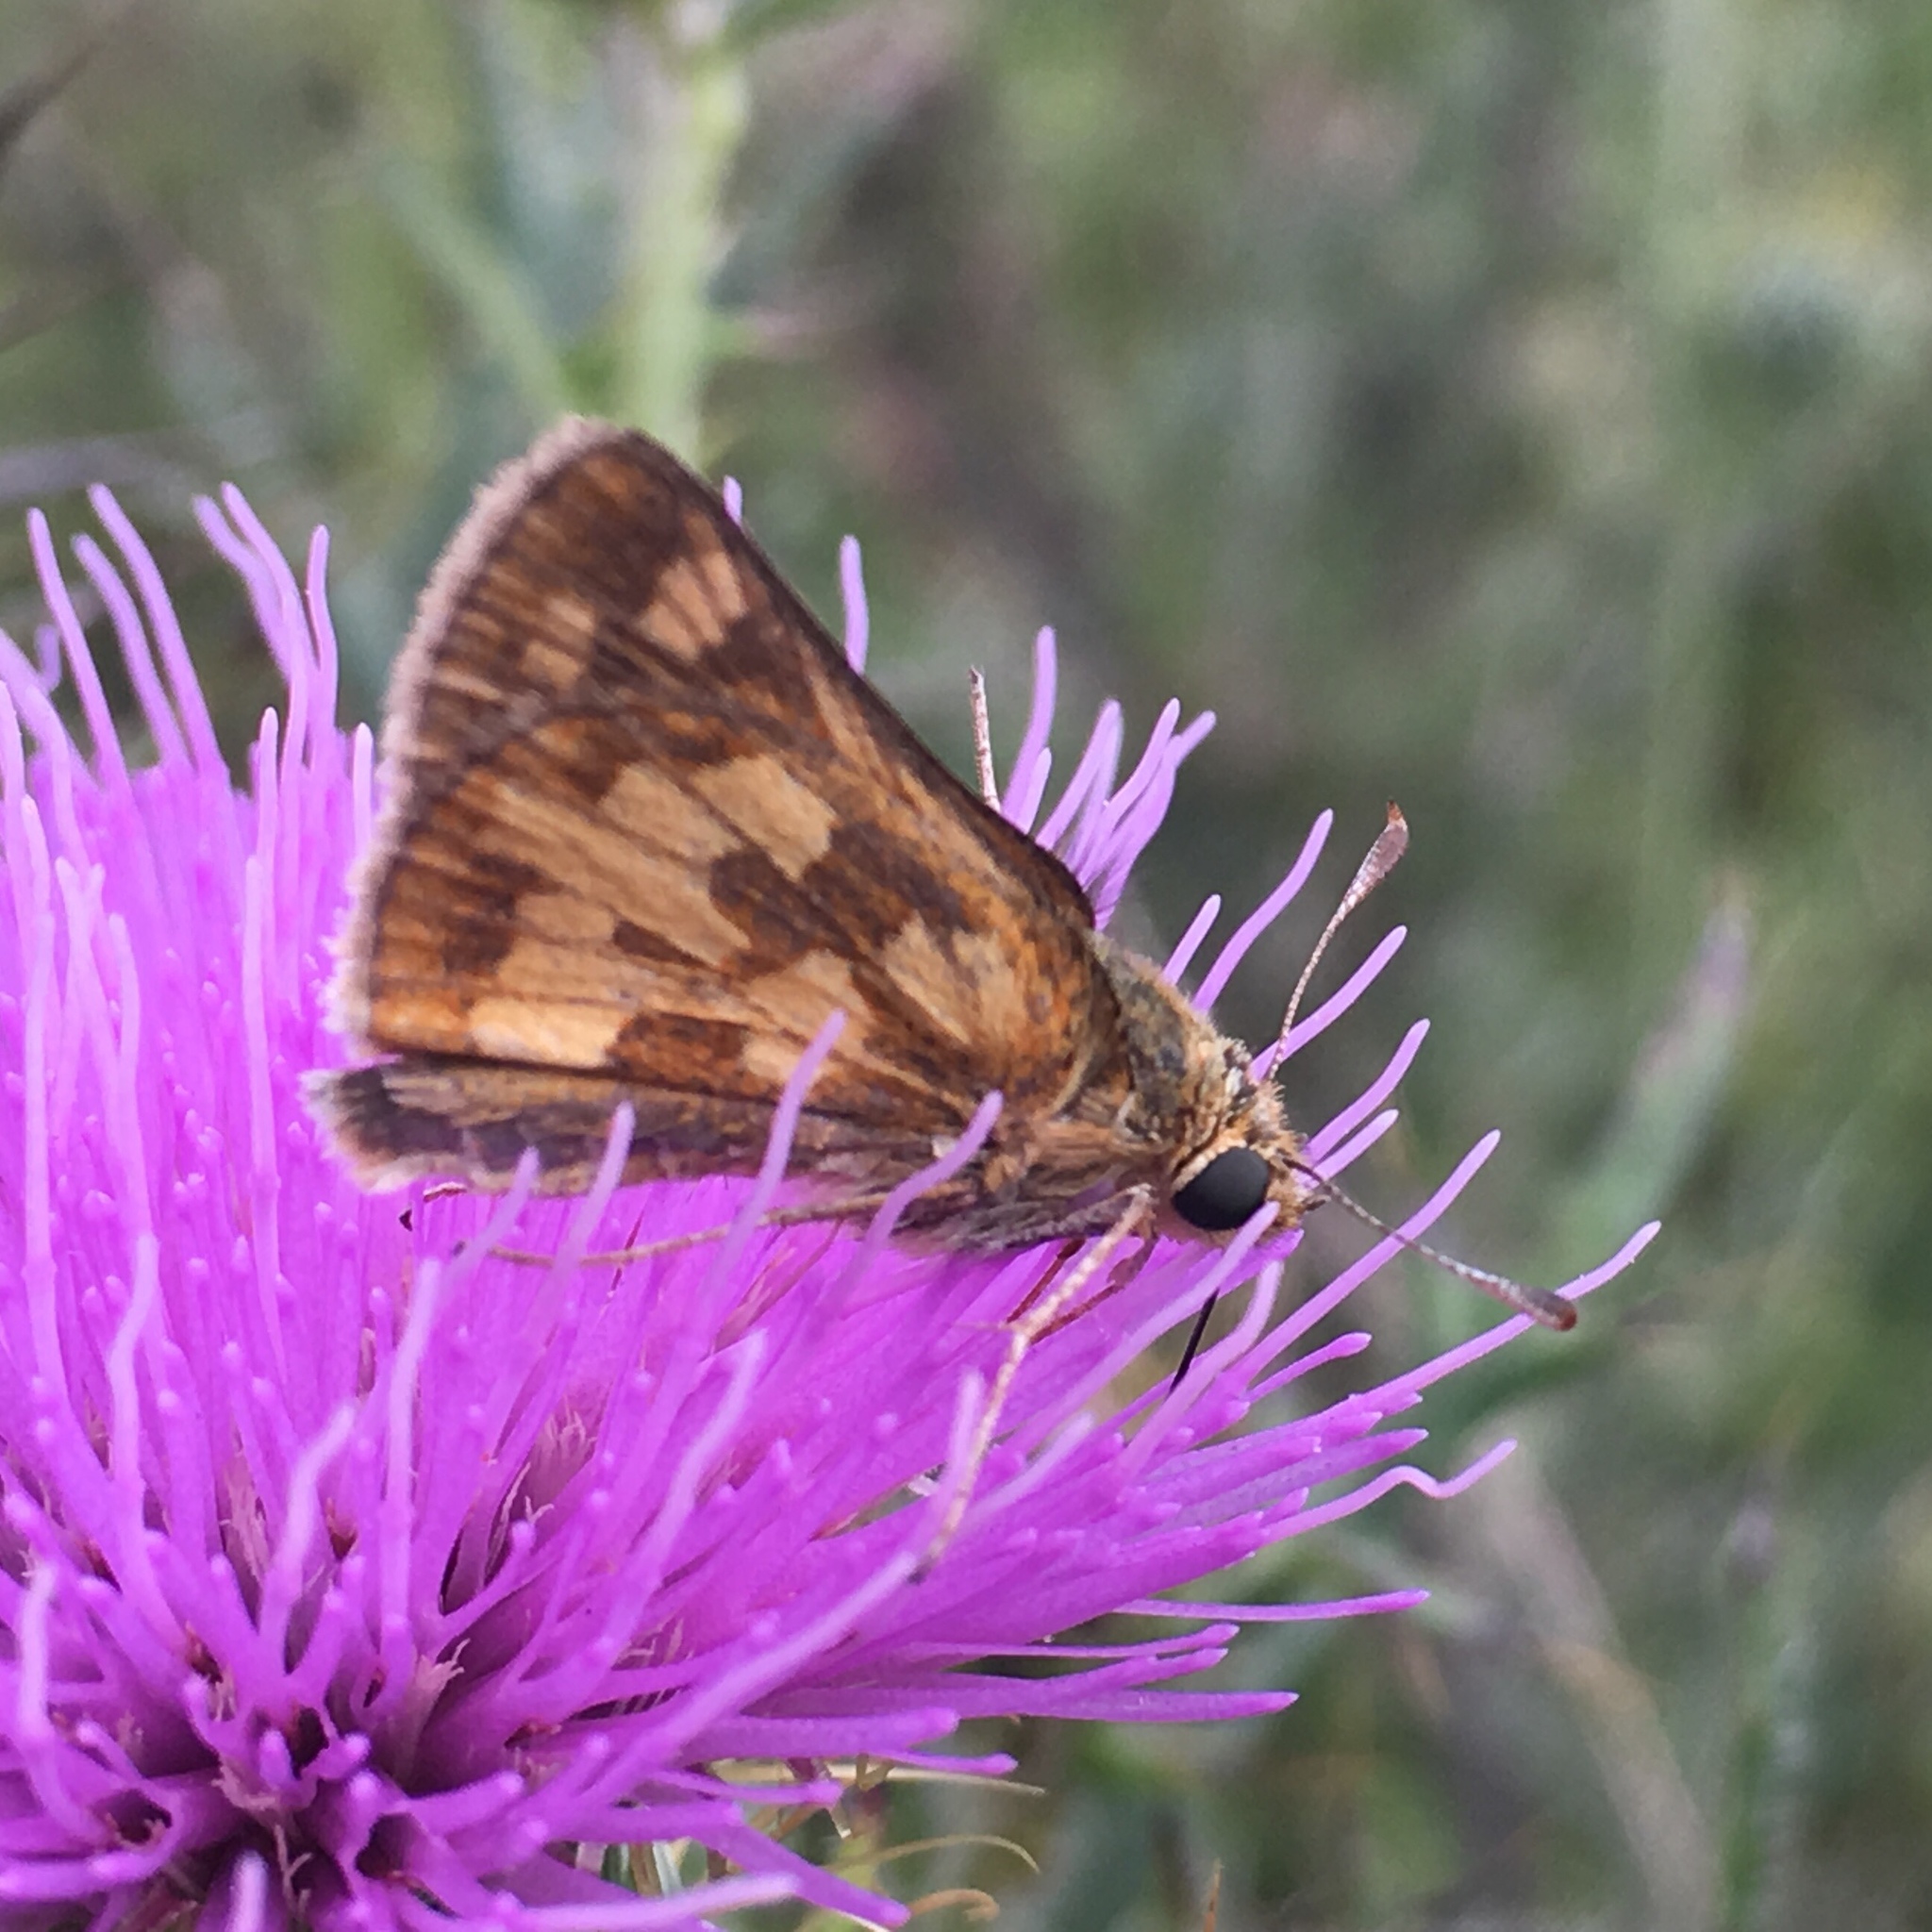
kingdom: Animalia
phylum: Arthropoda
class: Insecta
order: Lepidoptera
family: Hesperiidae
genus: Polites
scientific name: Polites coras
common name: Peck's skipper
